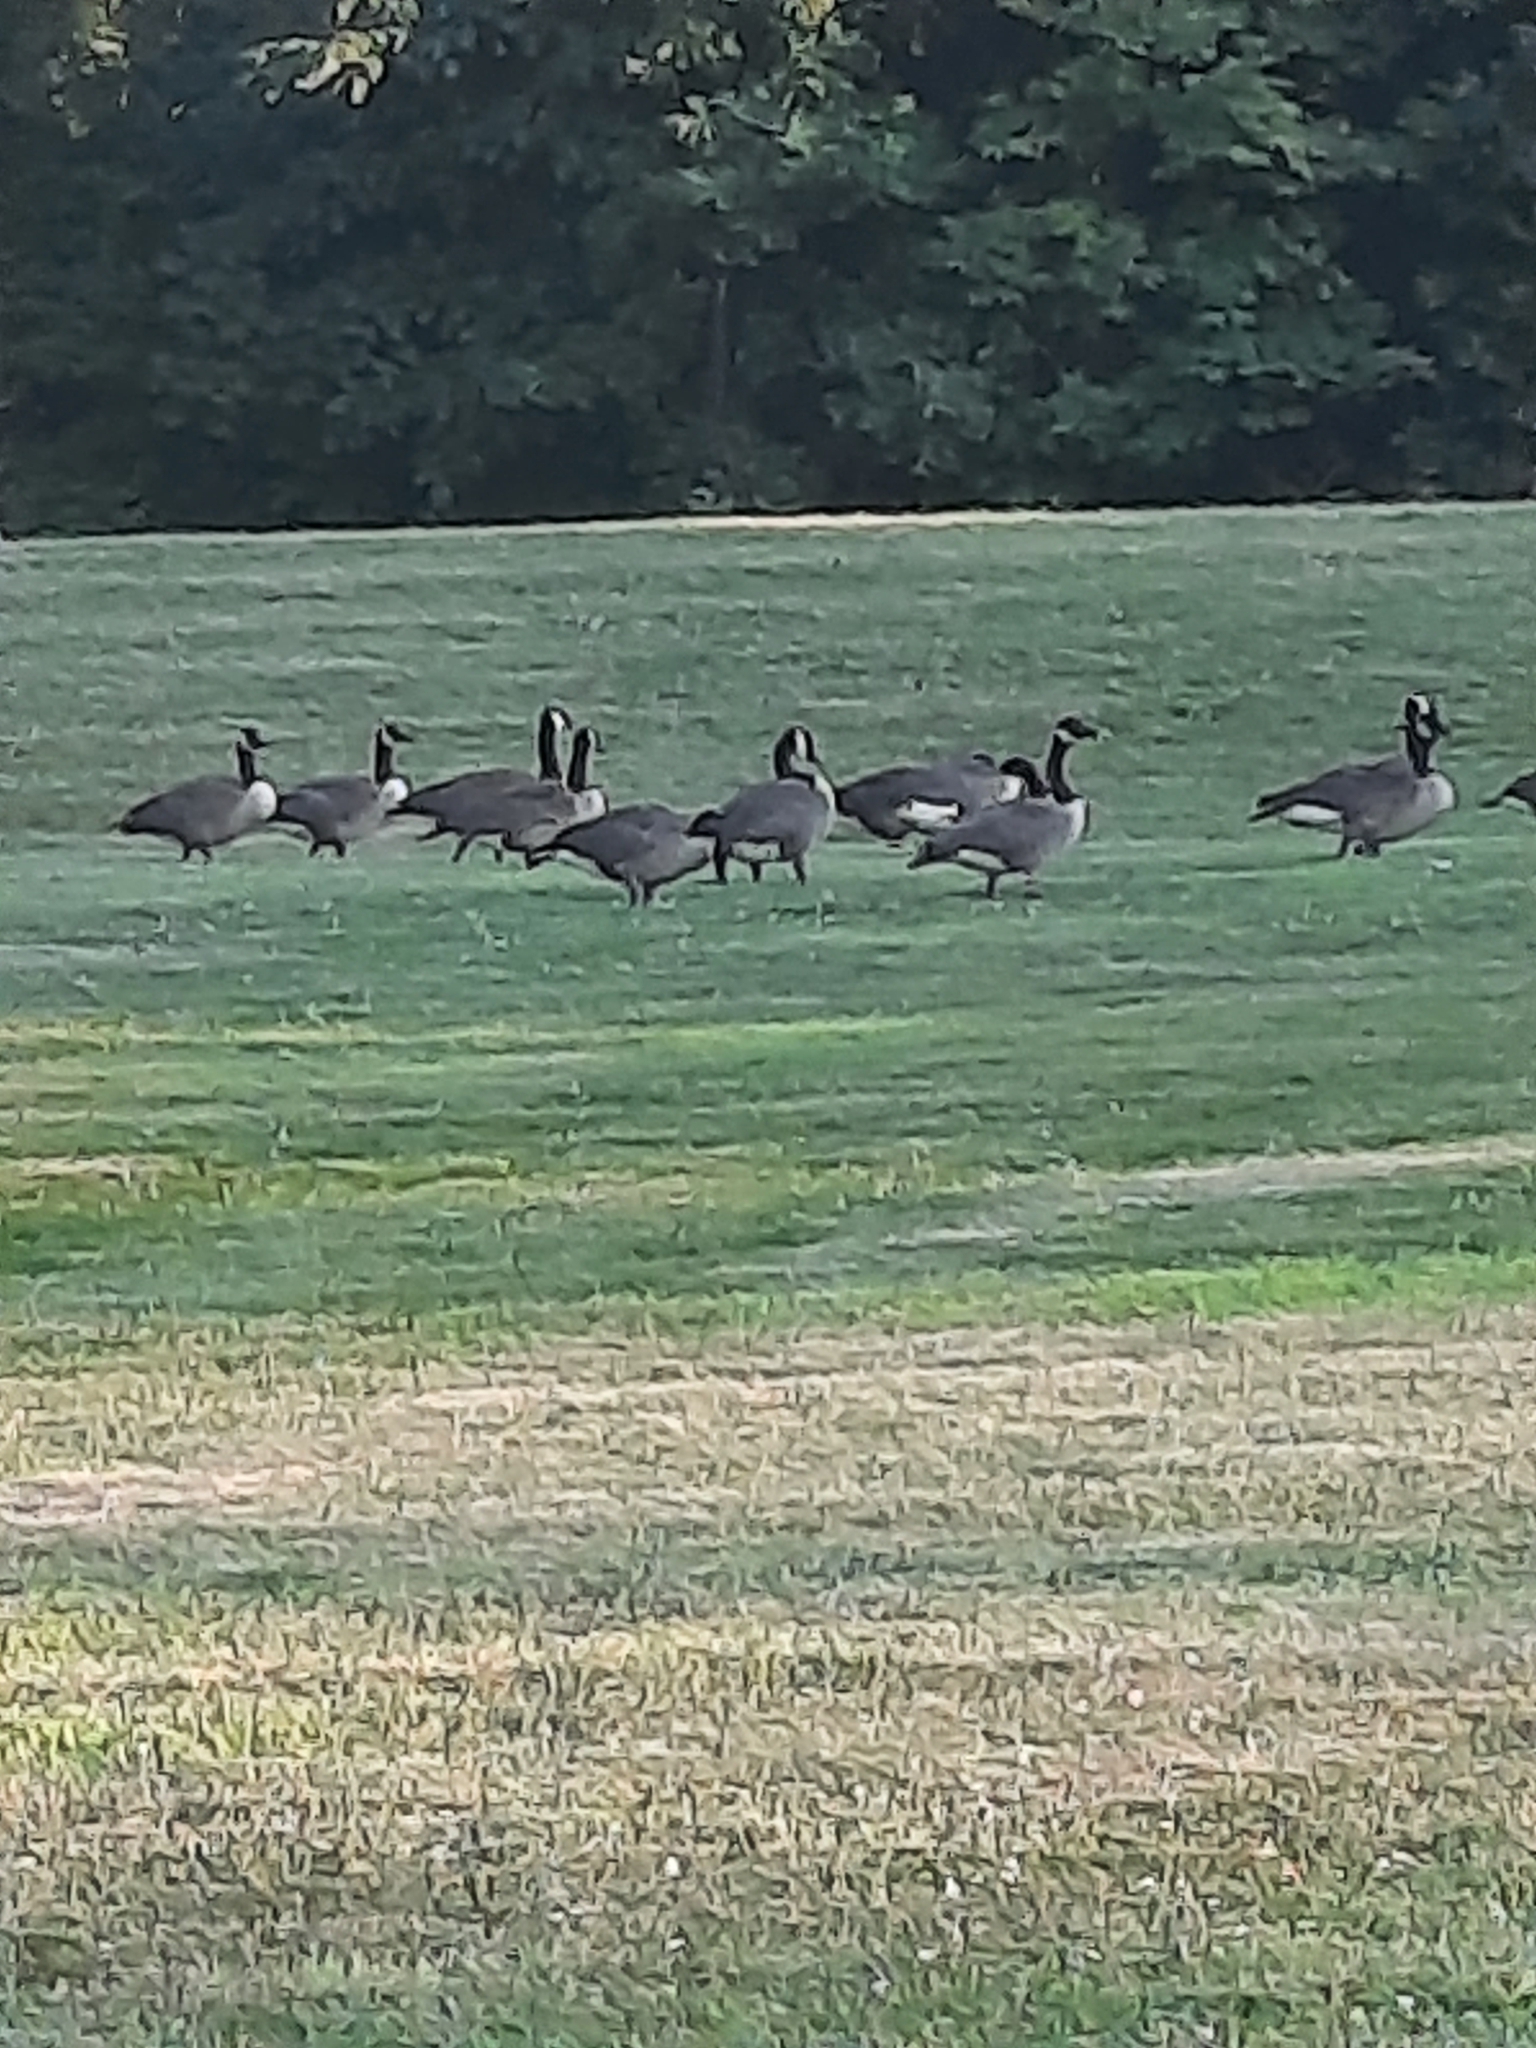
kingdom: Animalia
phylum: Chordata
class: Aves
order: Anseriformes
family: Anatidae
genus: Branta
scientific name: Branta canadensis
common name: Canada goose
